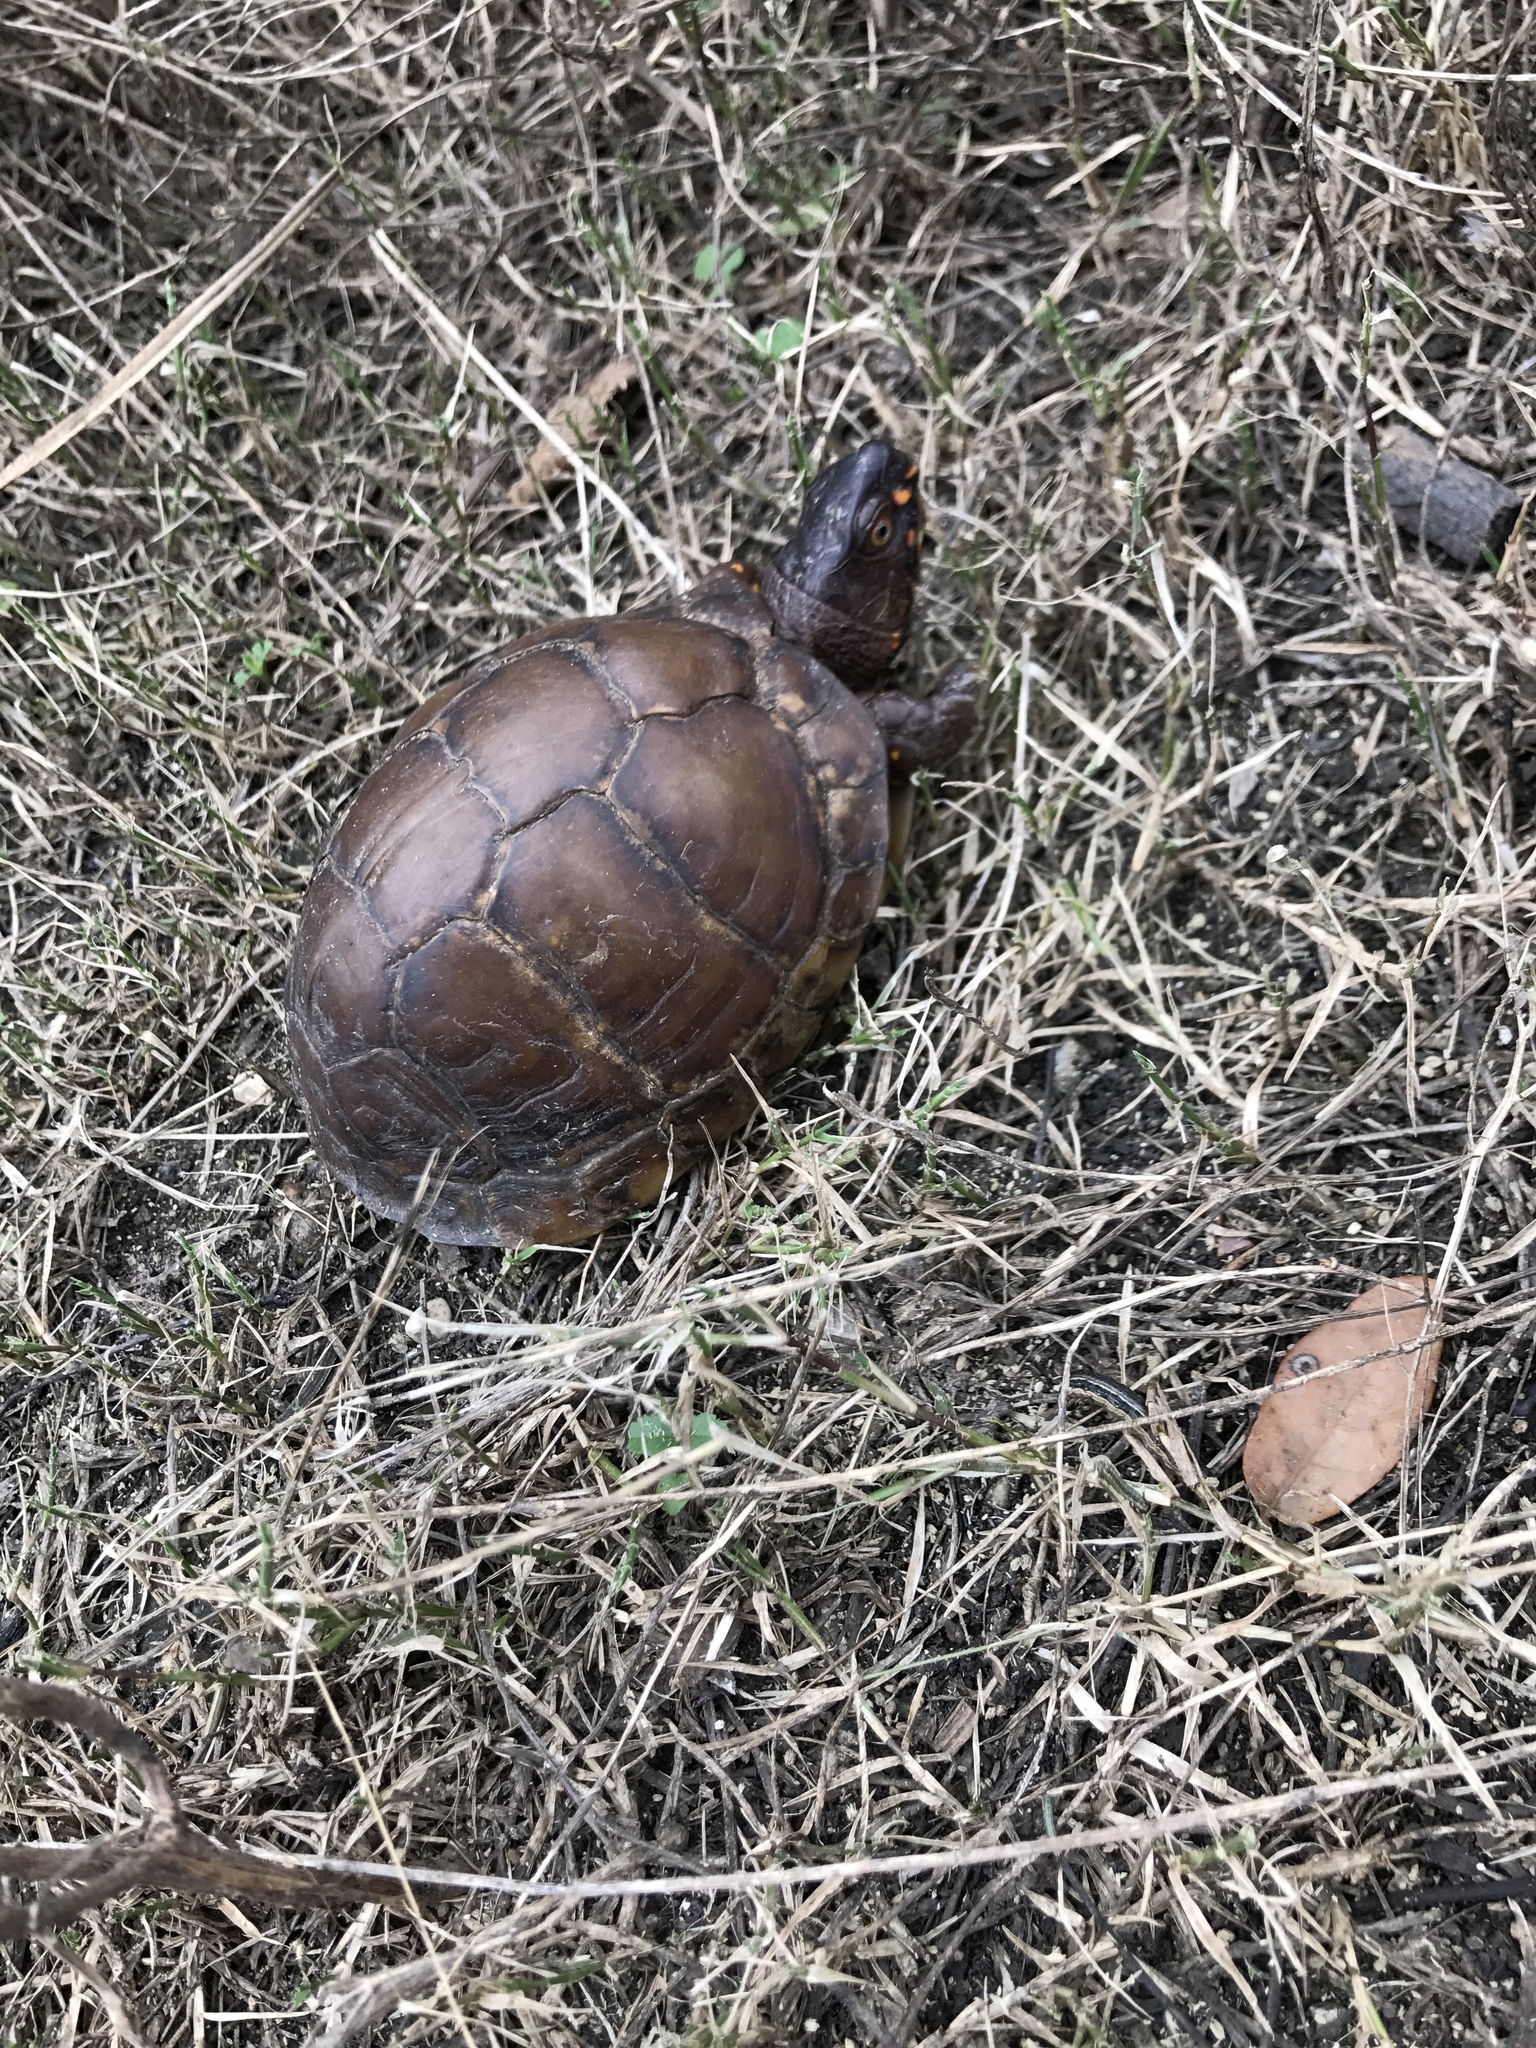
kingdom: Animalia
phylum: Chordata
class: Testudines
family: Emydidae
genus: Terrapene
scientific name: Terrapene carolina
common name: Common box turtle
